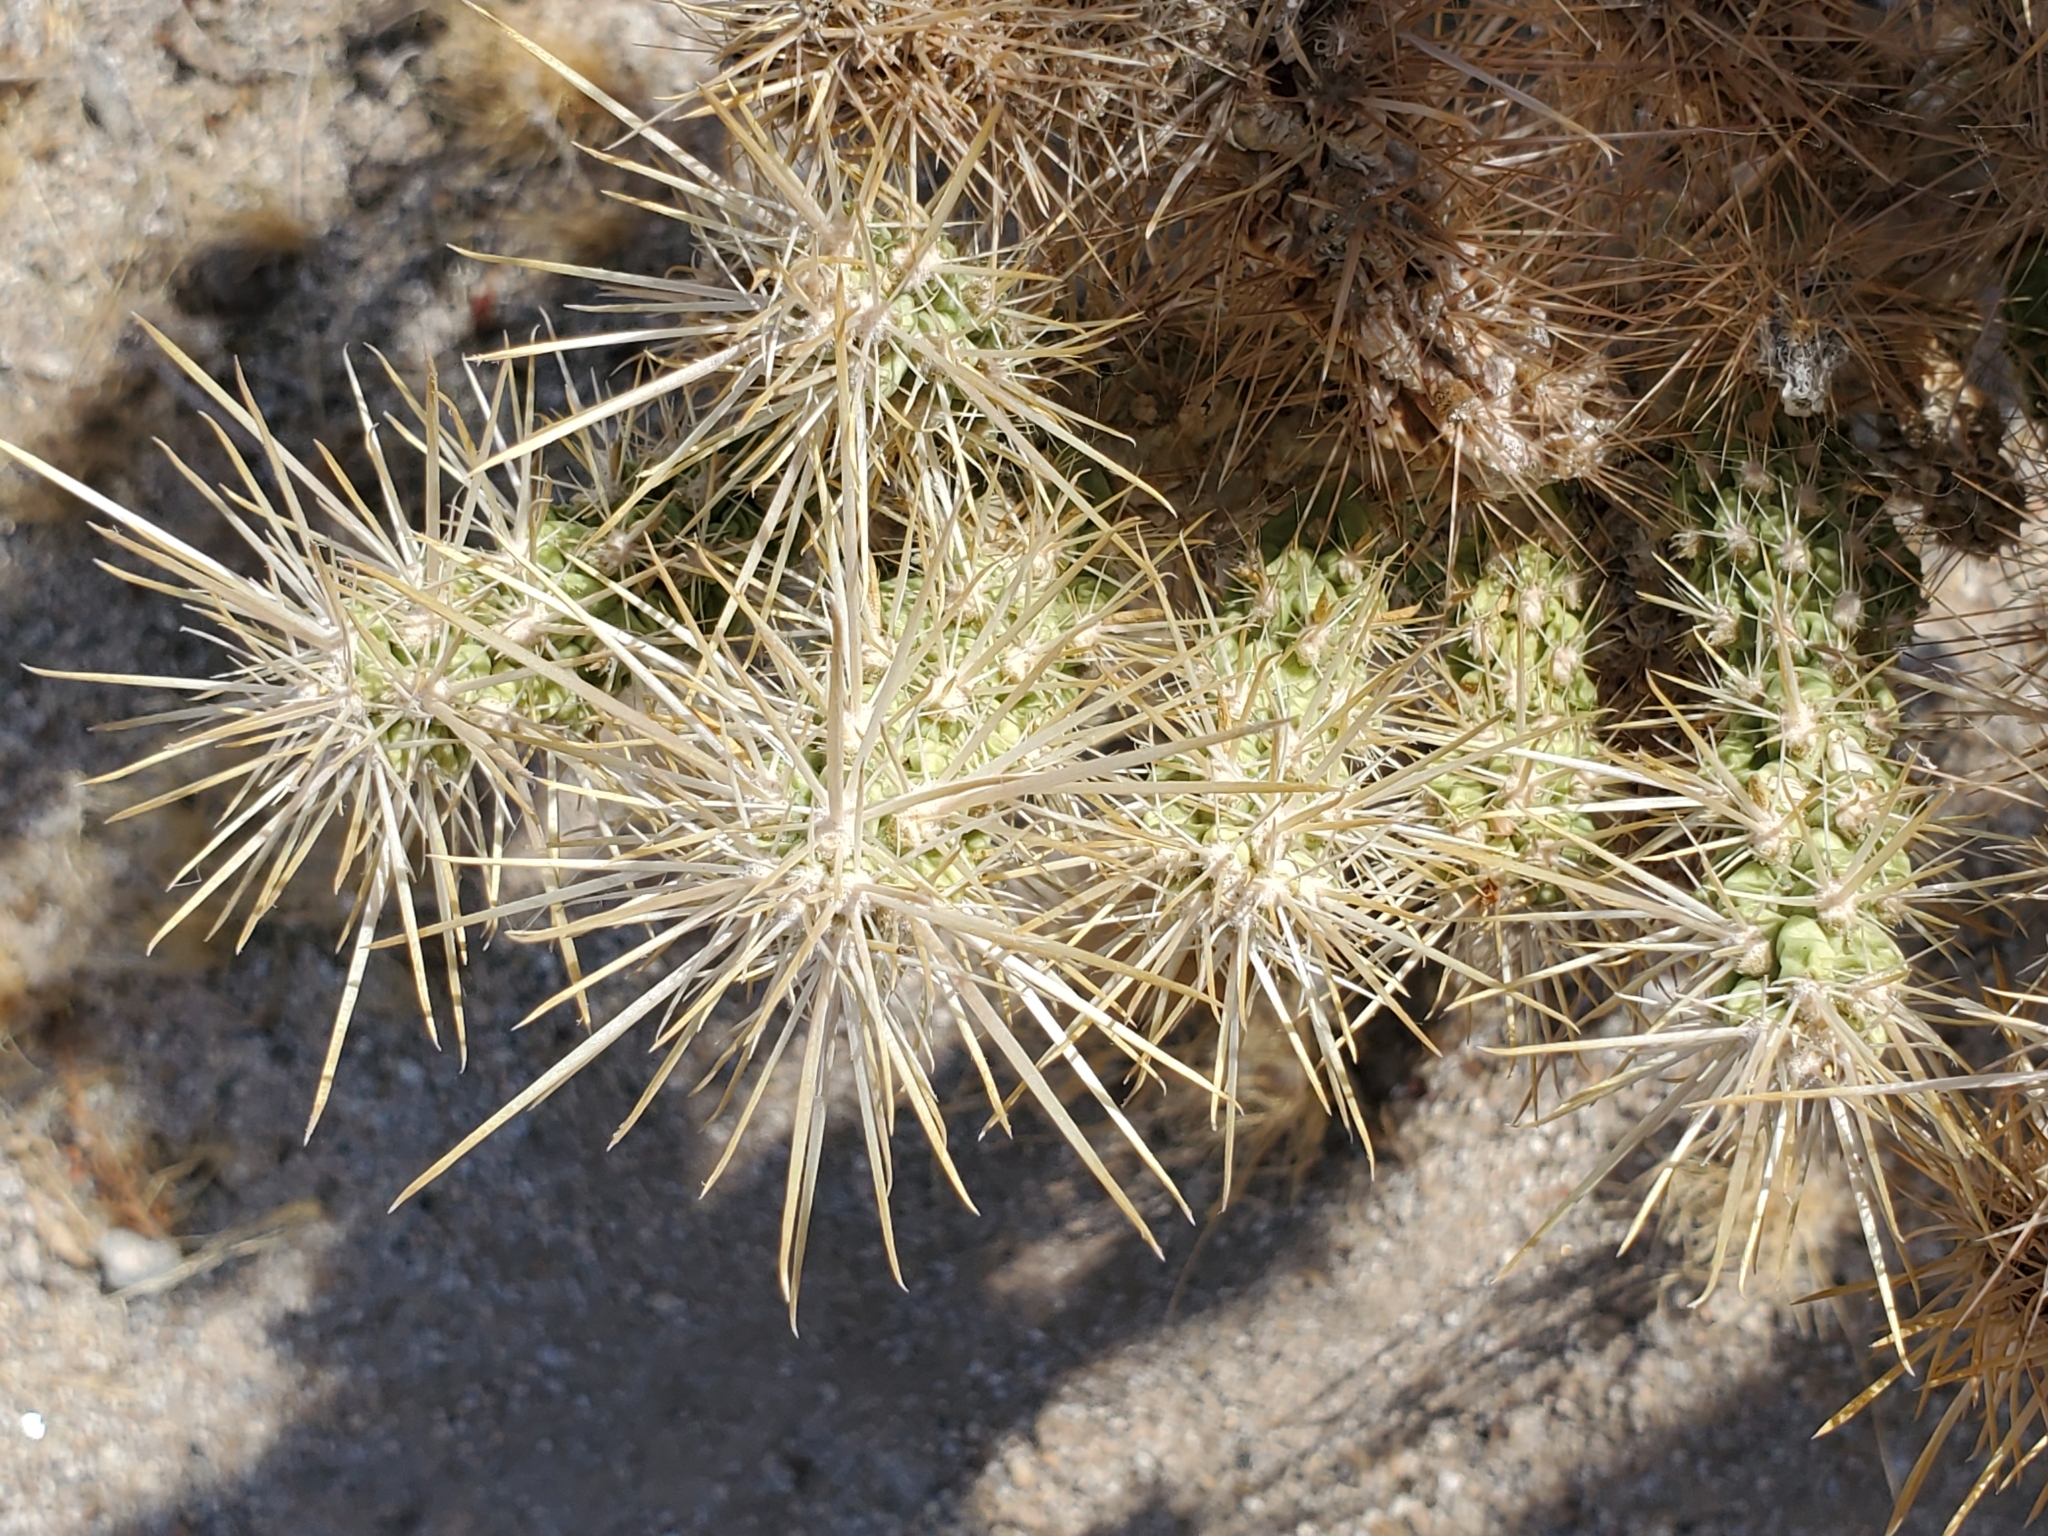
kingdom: Plantae
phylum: Tracheophyta
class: Magnoliopsida
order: Caryophyllales
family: Cactaceae
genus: Cylindropuntia
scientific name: Cylindropuntia echinocarpa
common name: Ground cholla
